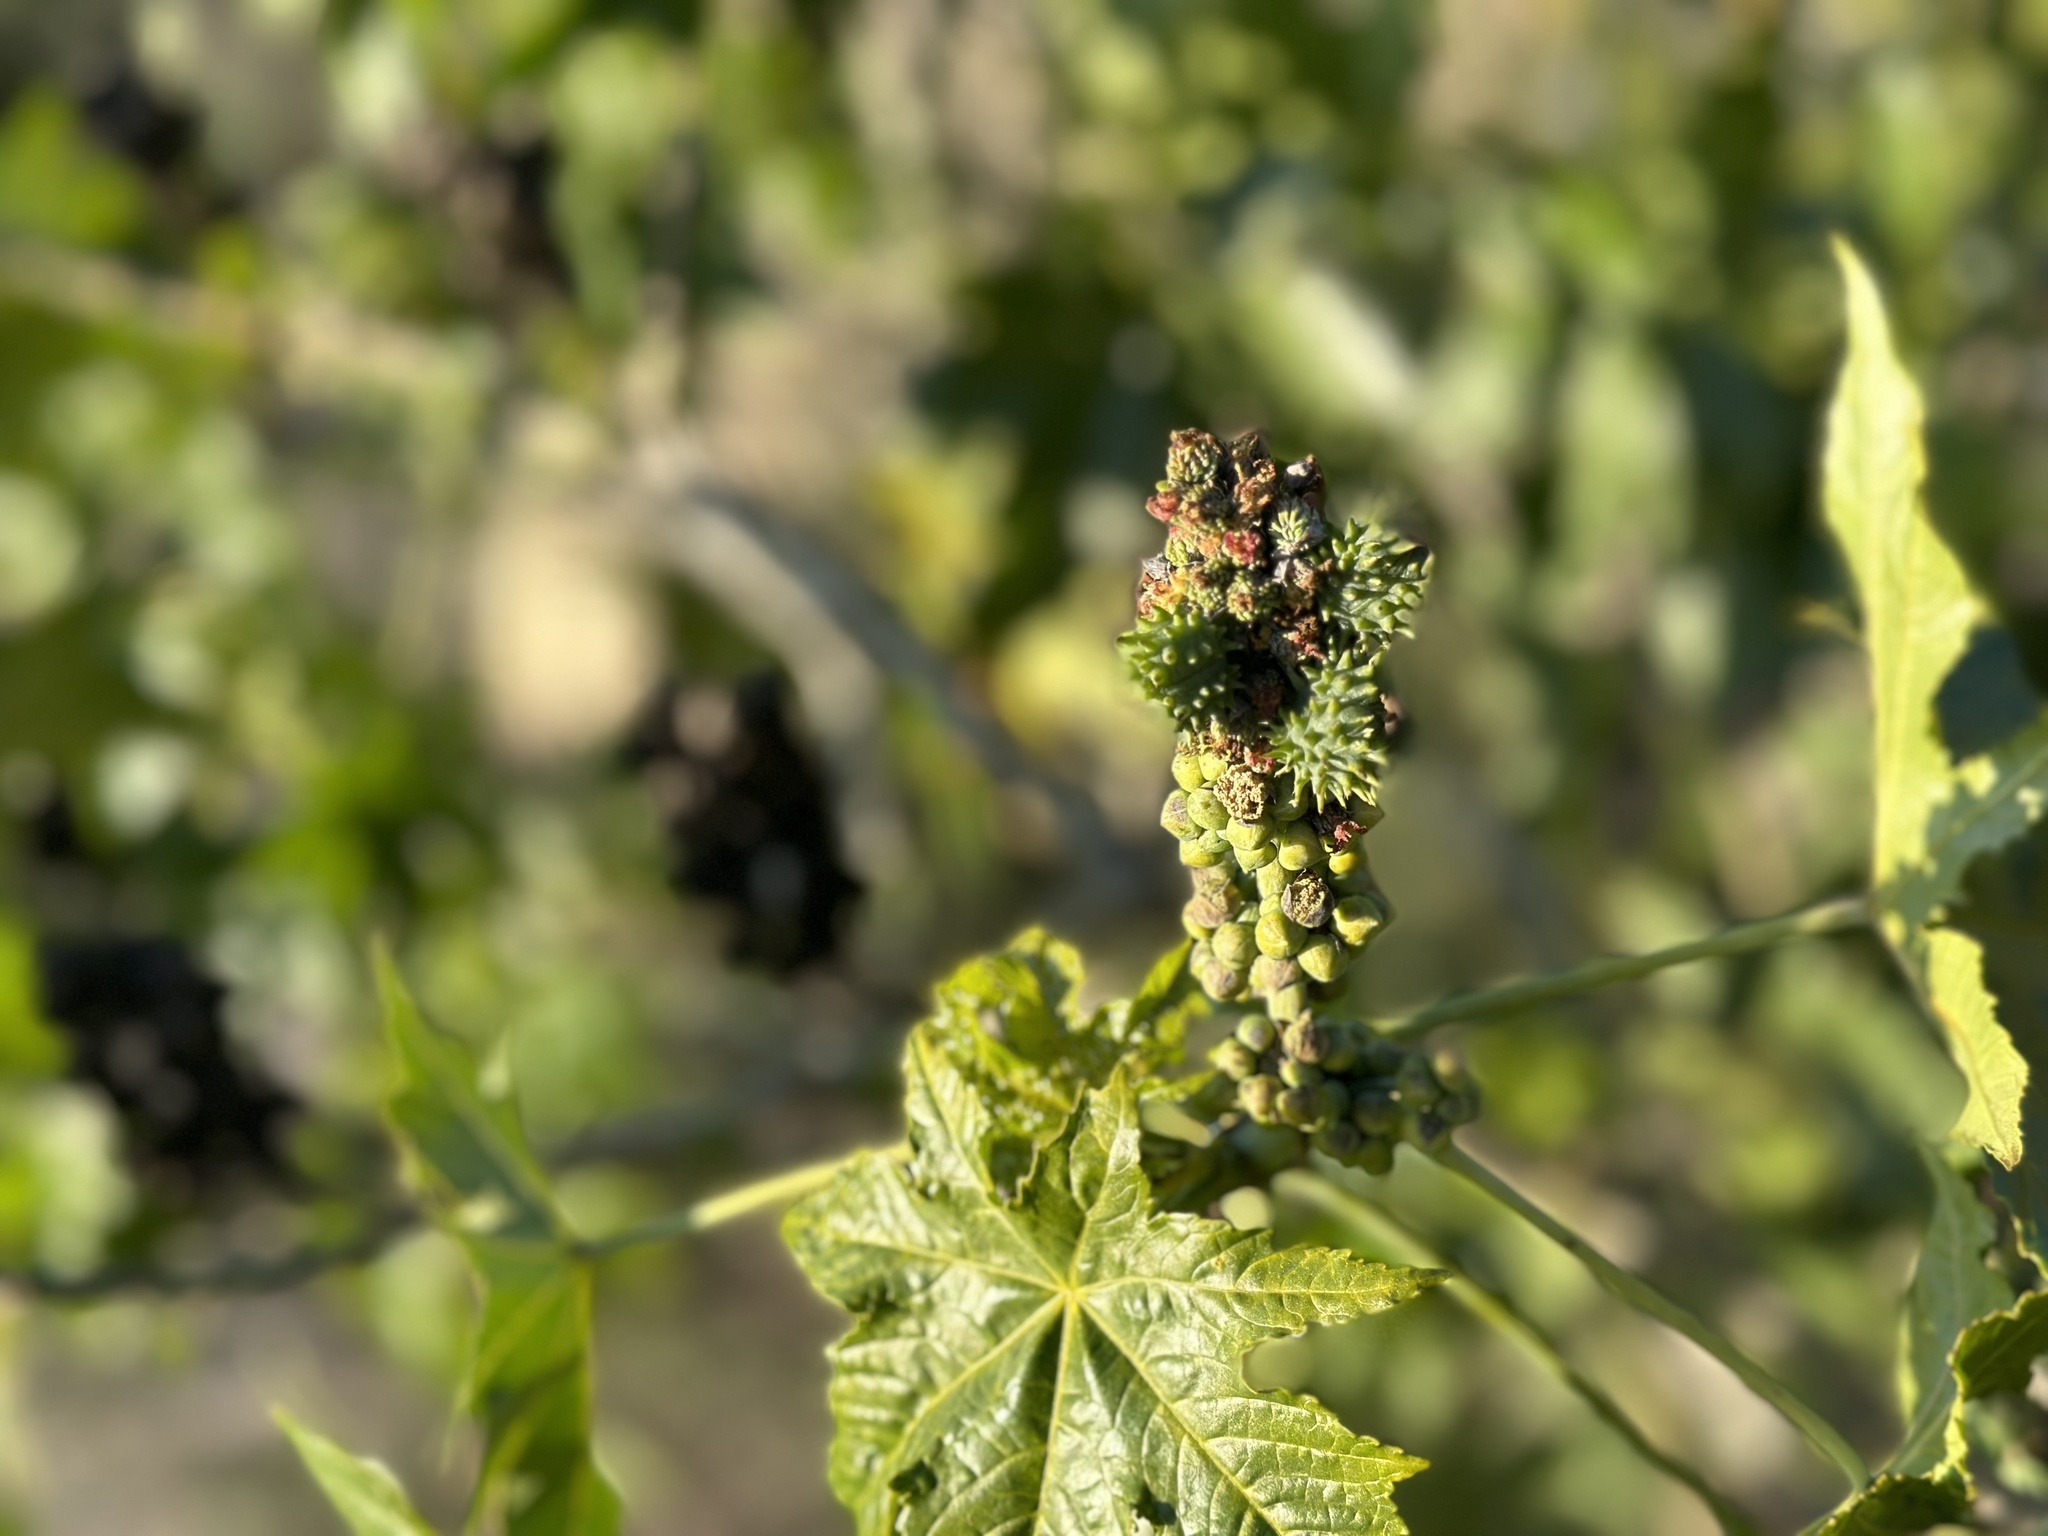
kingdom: Plantae
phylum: Tracheophyta
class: Magnoliopsida
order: Malpighiales
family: Euphorbiaceae
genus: Ricinus
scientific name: Ricinus communis
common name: Castor-oil-plant
